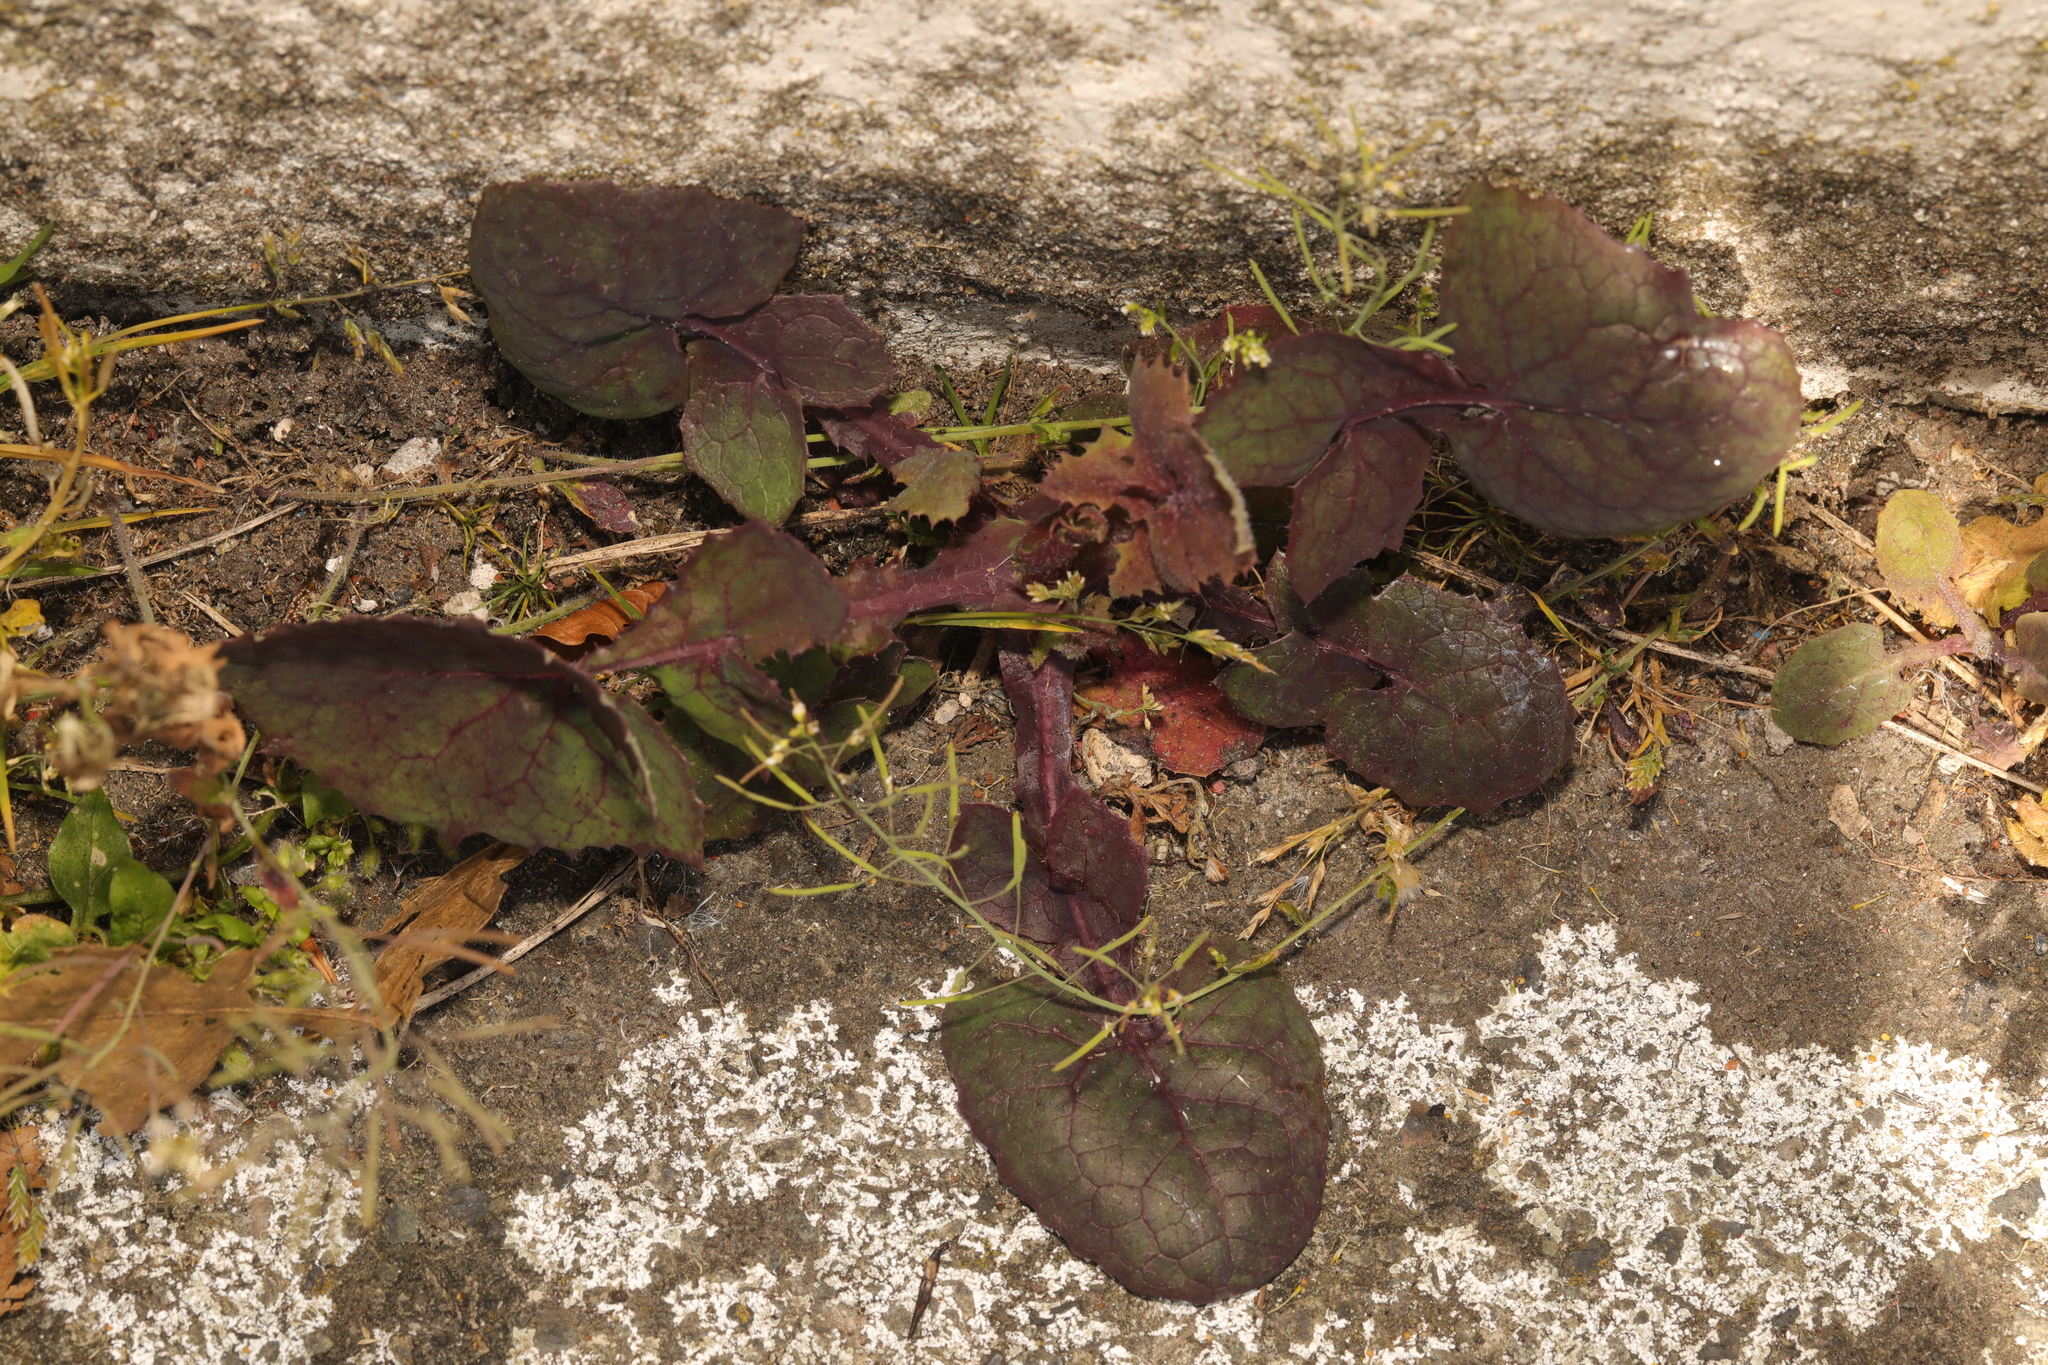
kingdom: Plantae
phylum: Tracheophyta
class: Magnoliopsida
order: Asterales
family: Asteraceae
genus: Sonchus
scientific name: Sonchus oleraceus
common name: Common sowthistle
